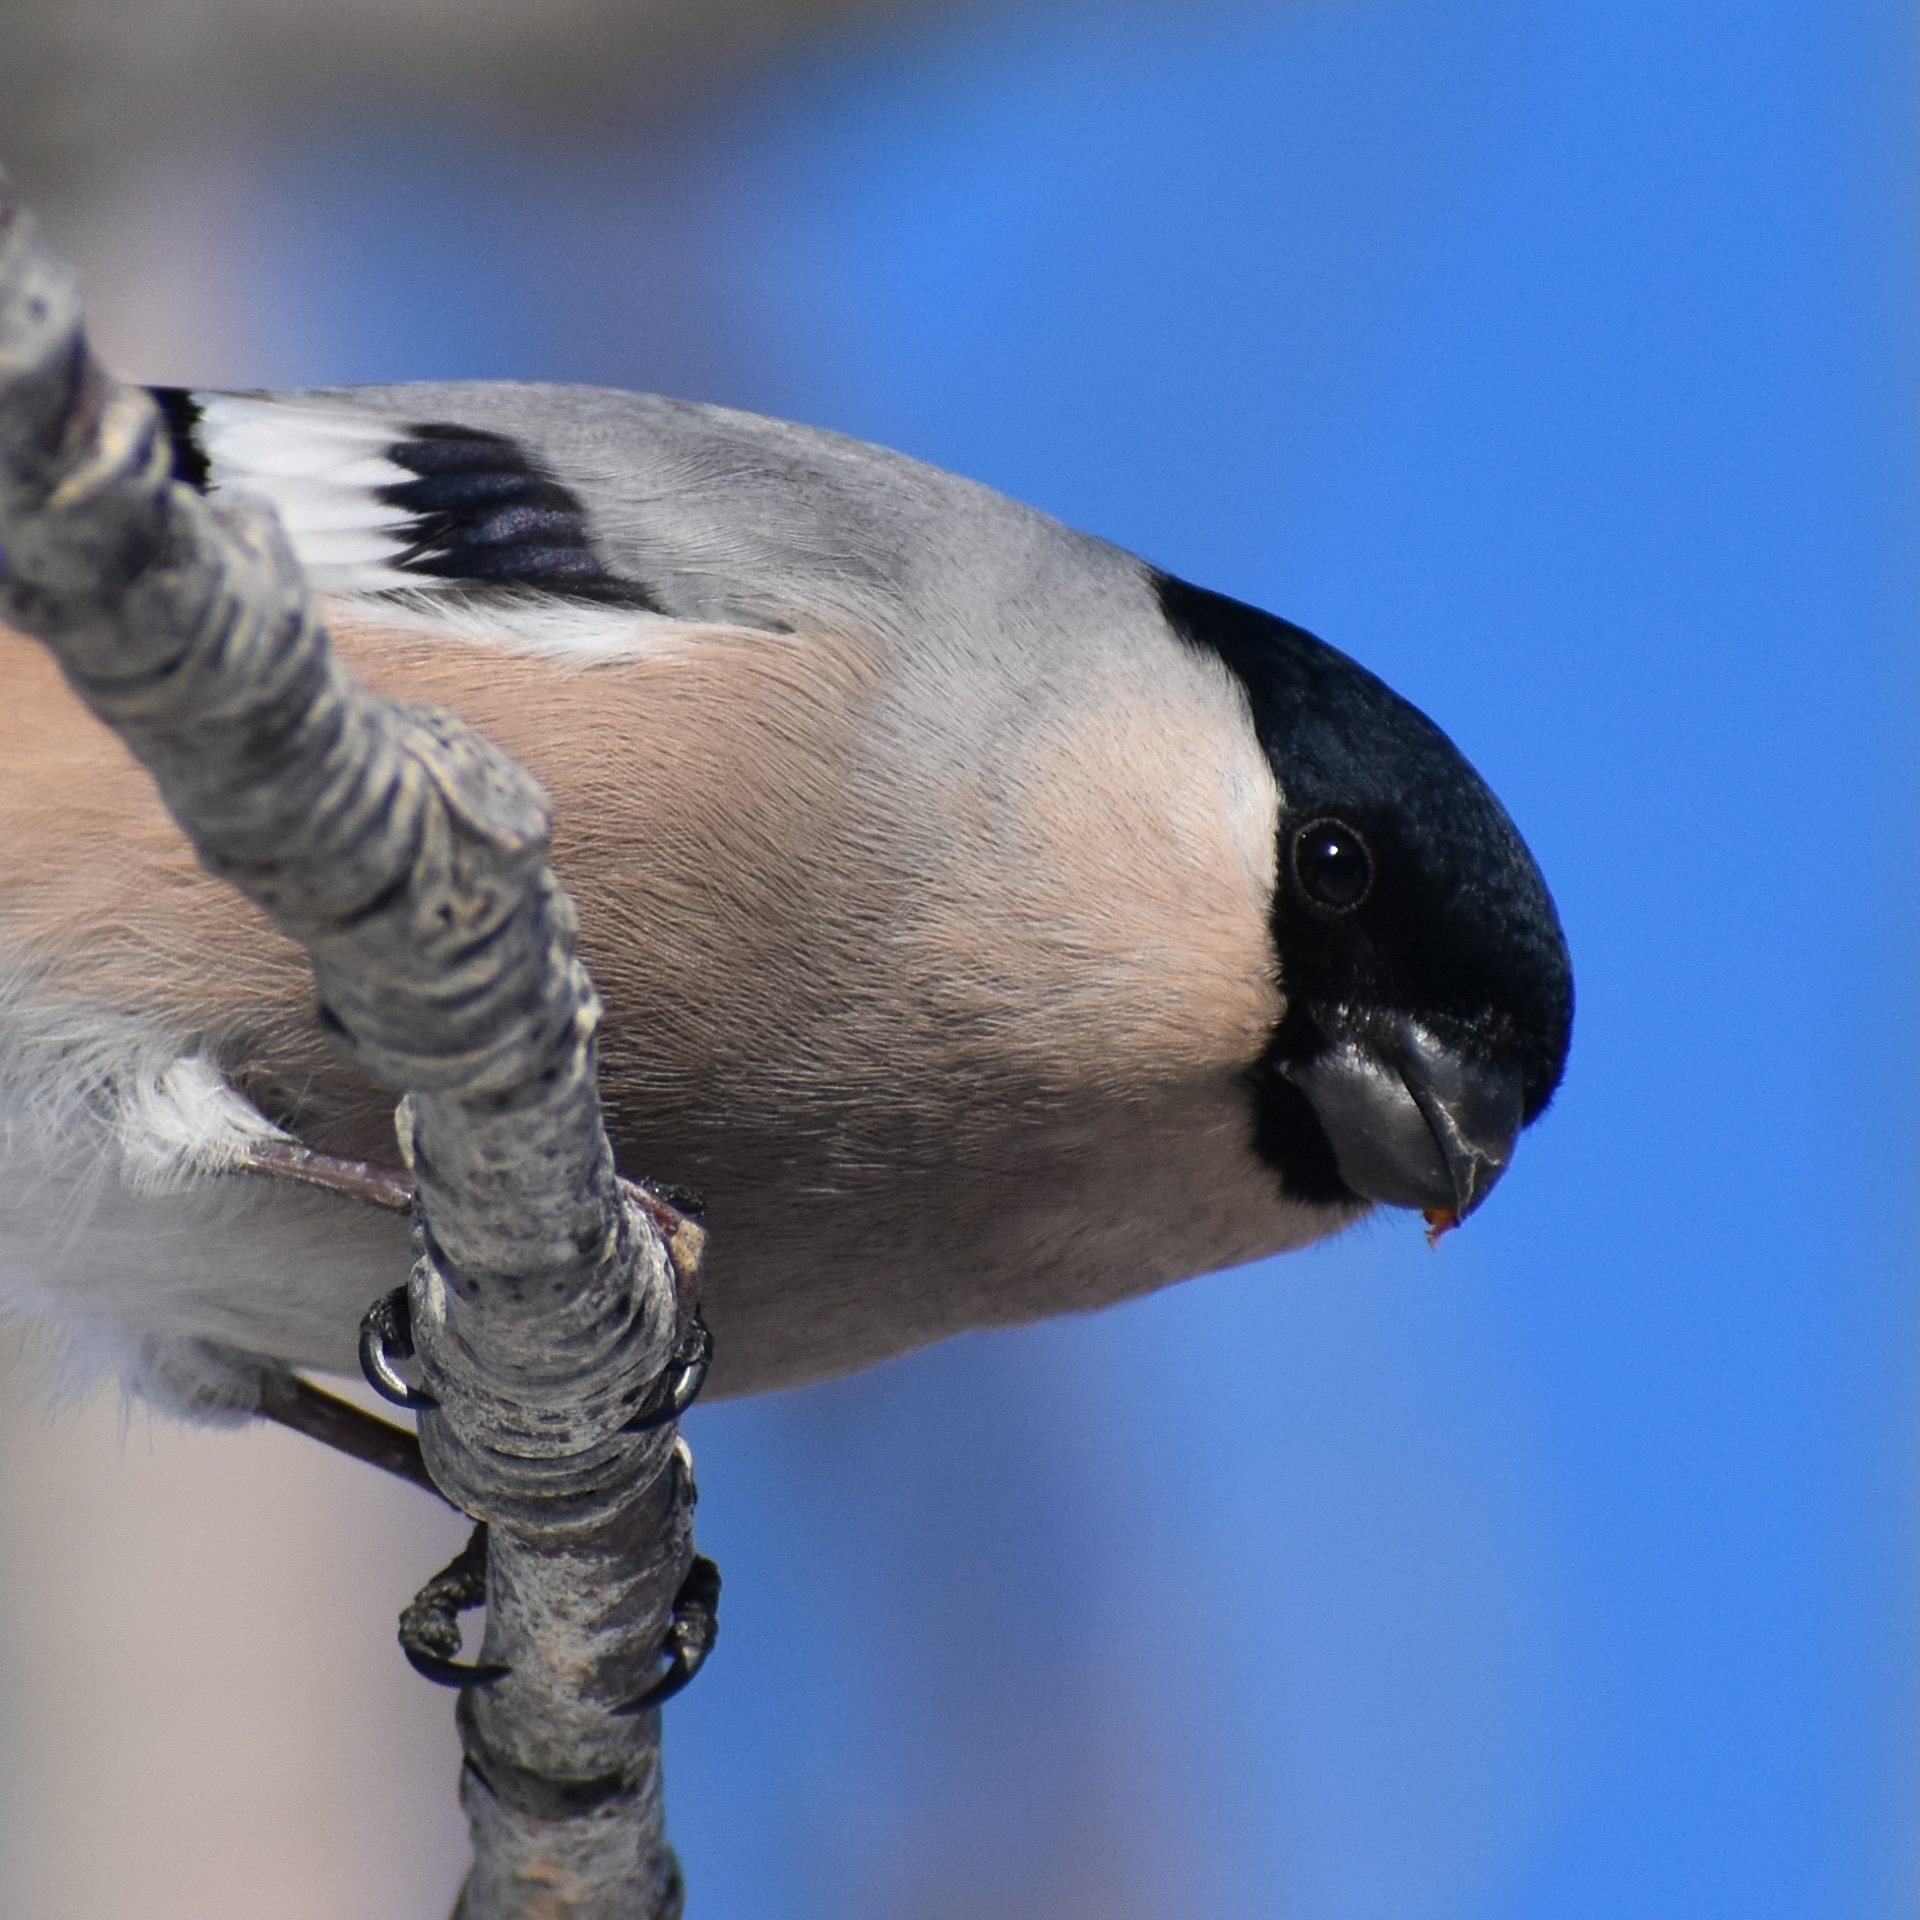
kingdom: Animalia
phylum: Chordata
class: Aves
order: Passeriformes
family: Fringillidae
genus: Pyrrhula
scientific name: Pyrrhula pyrrhula
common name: Eurasian bullfinch
